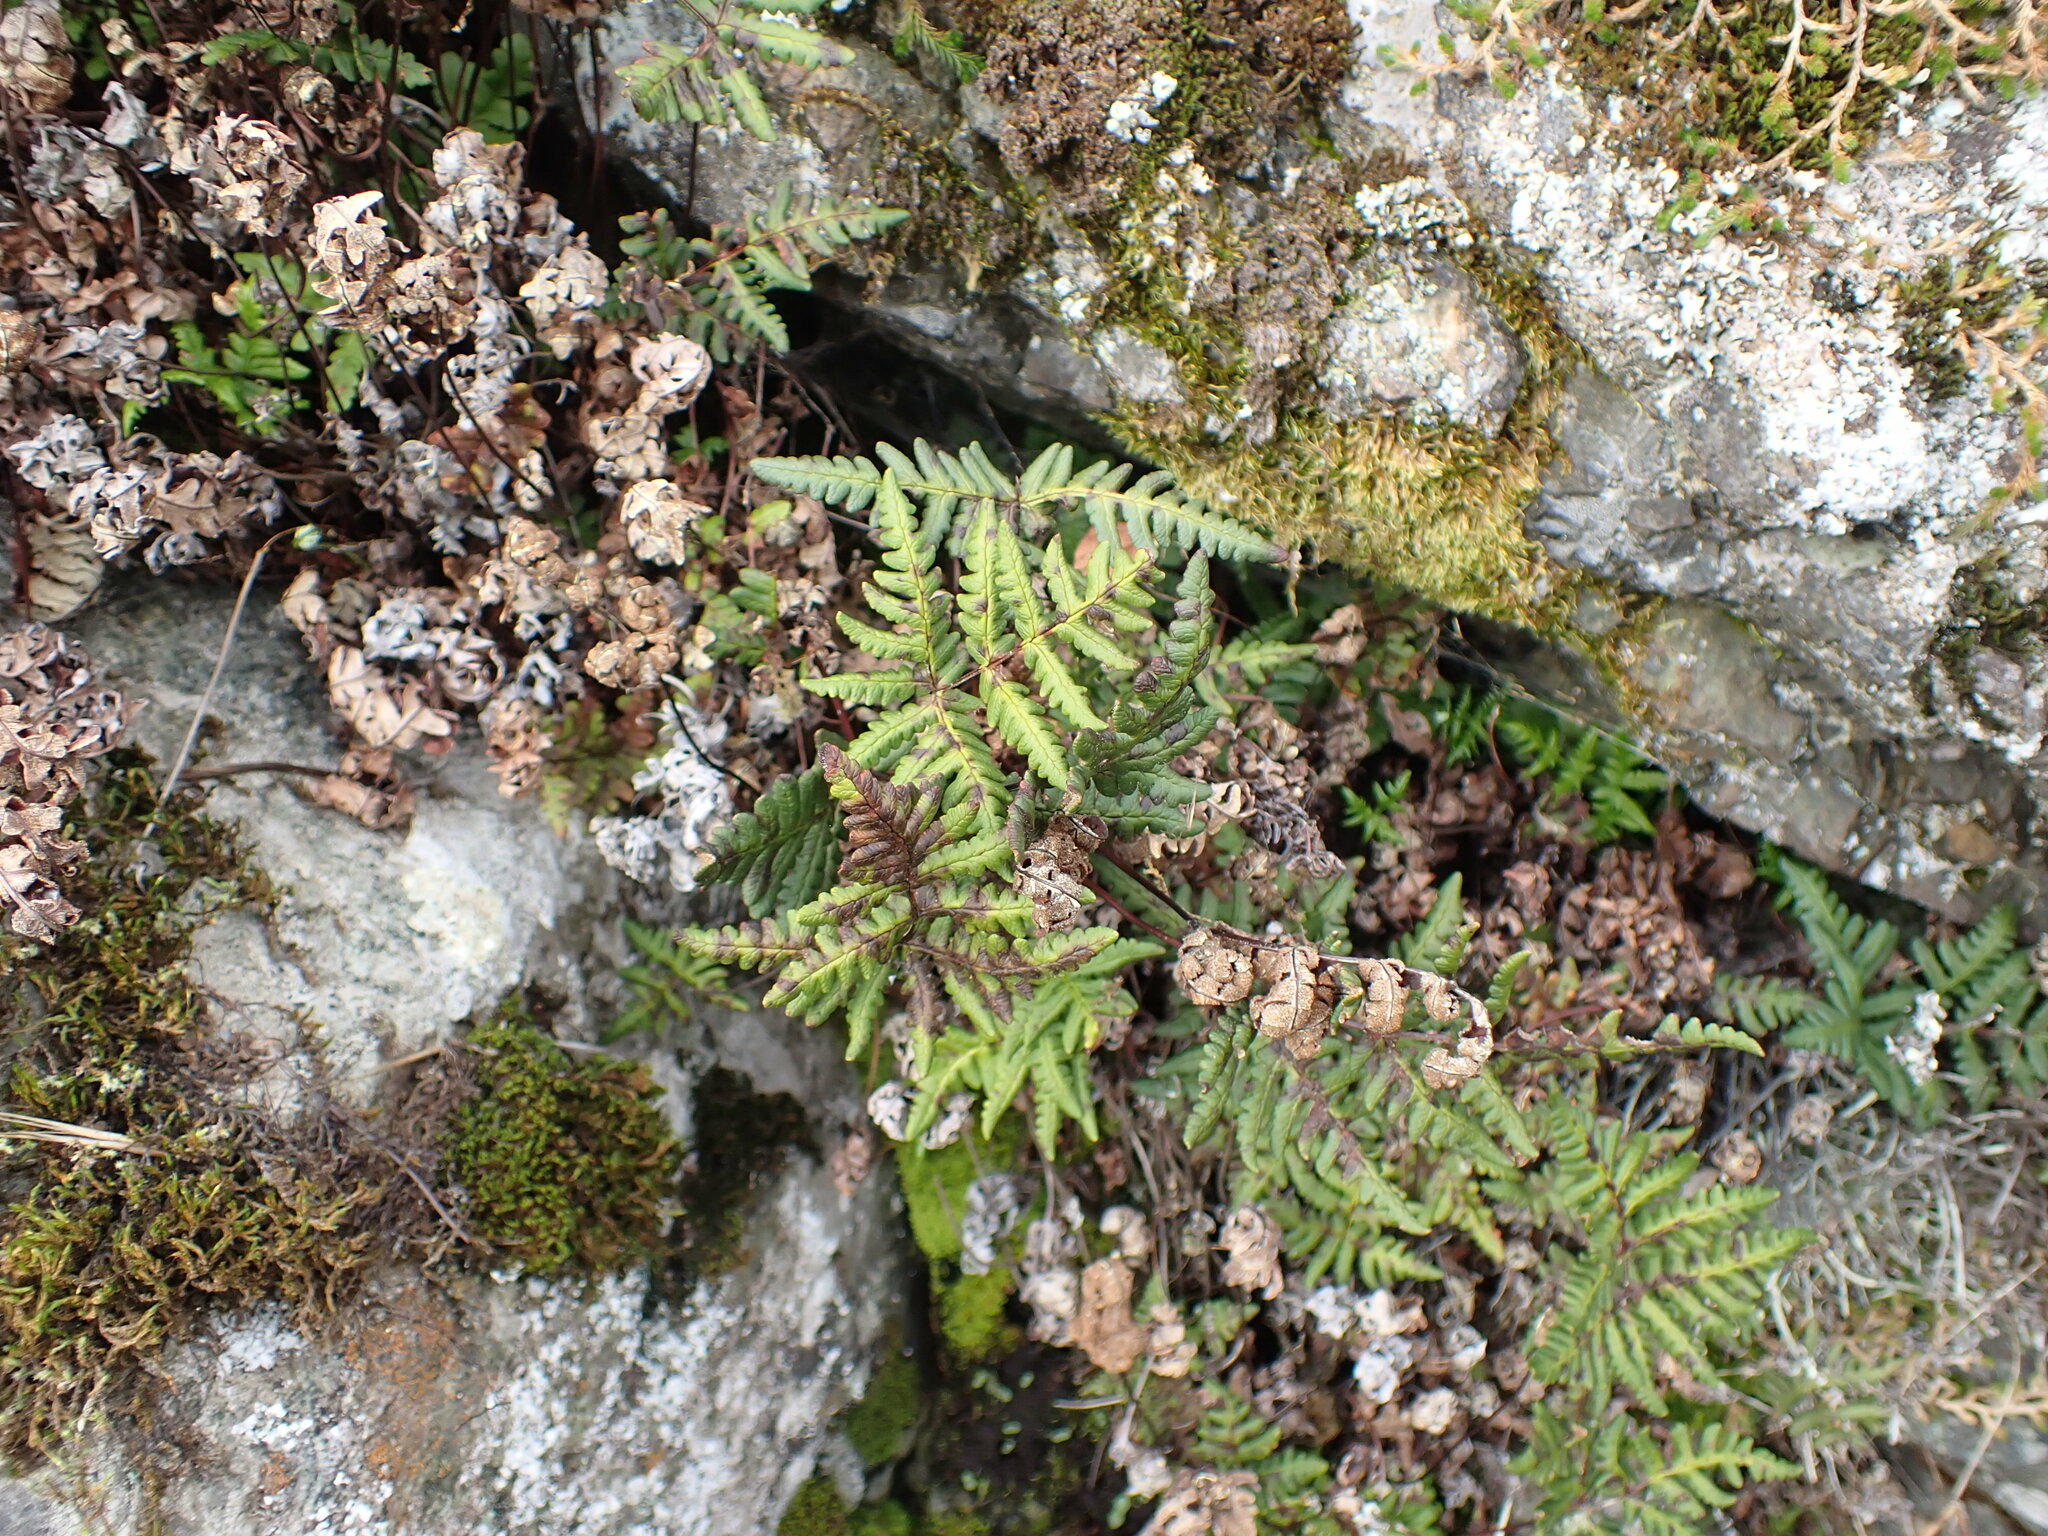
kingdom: Plantae
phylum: Tracheophyta
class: Polypodiopsida
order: Polypodiales
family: Pteridaceae
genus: Pentagramma
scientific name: Pentagramma triangularis
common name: Gold fern
